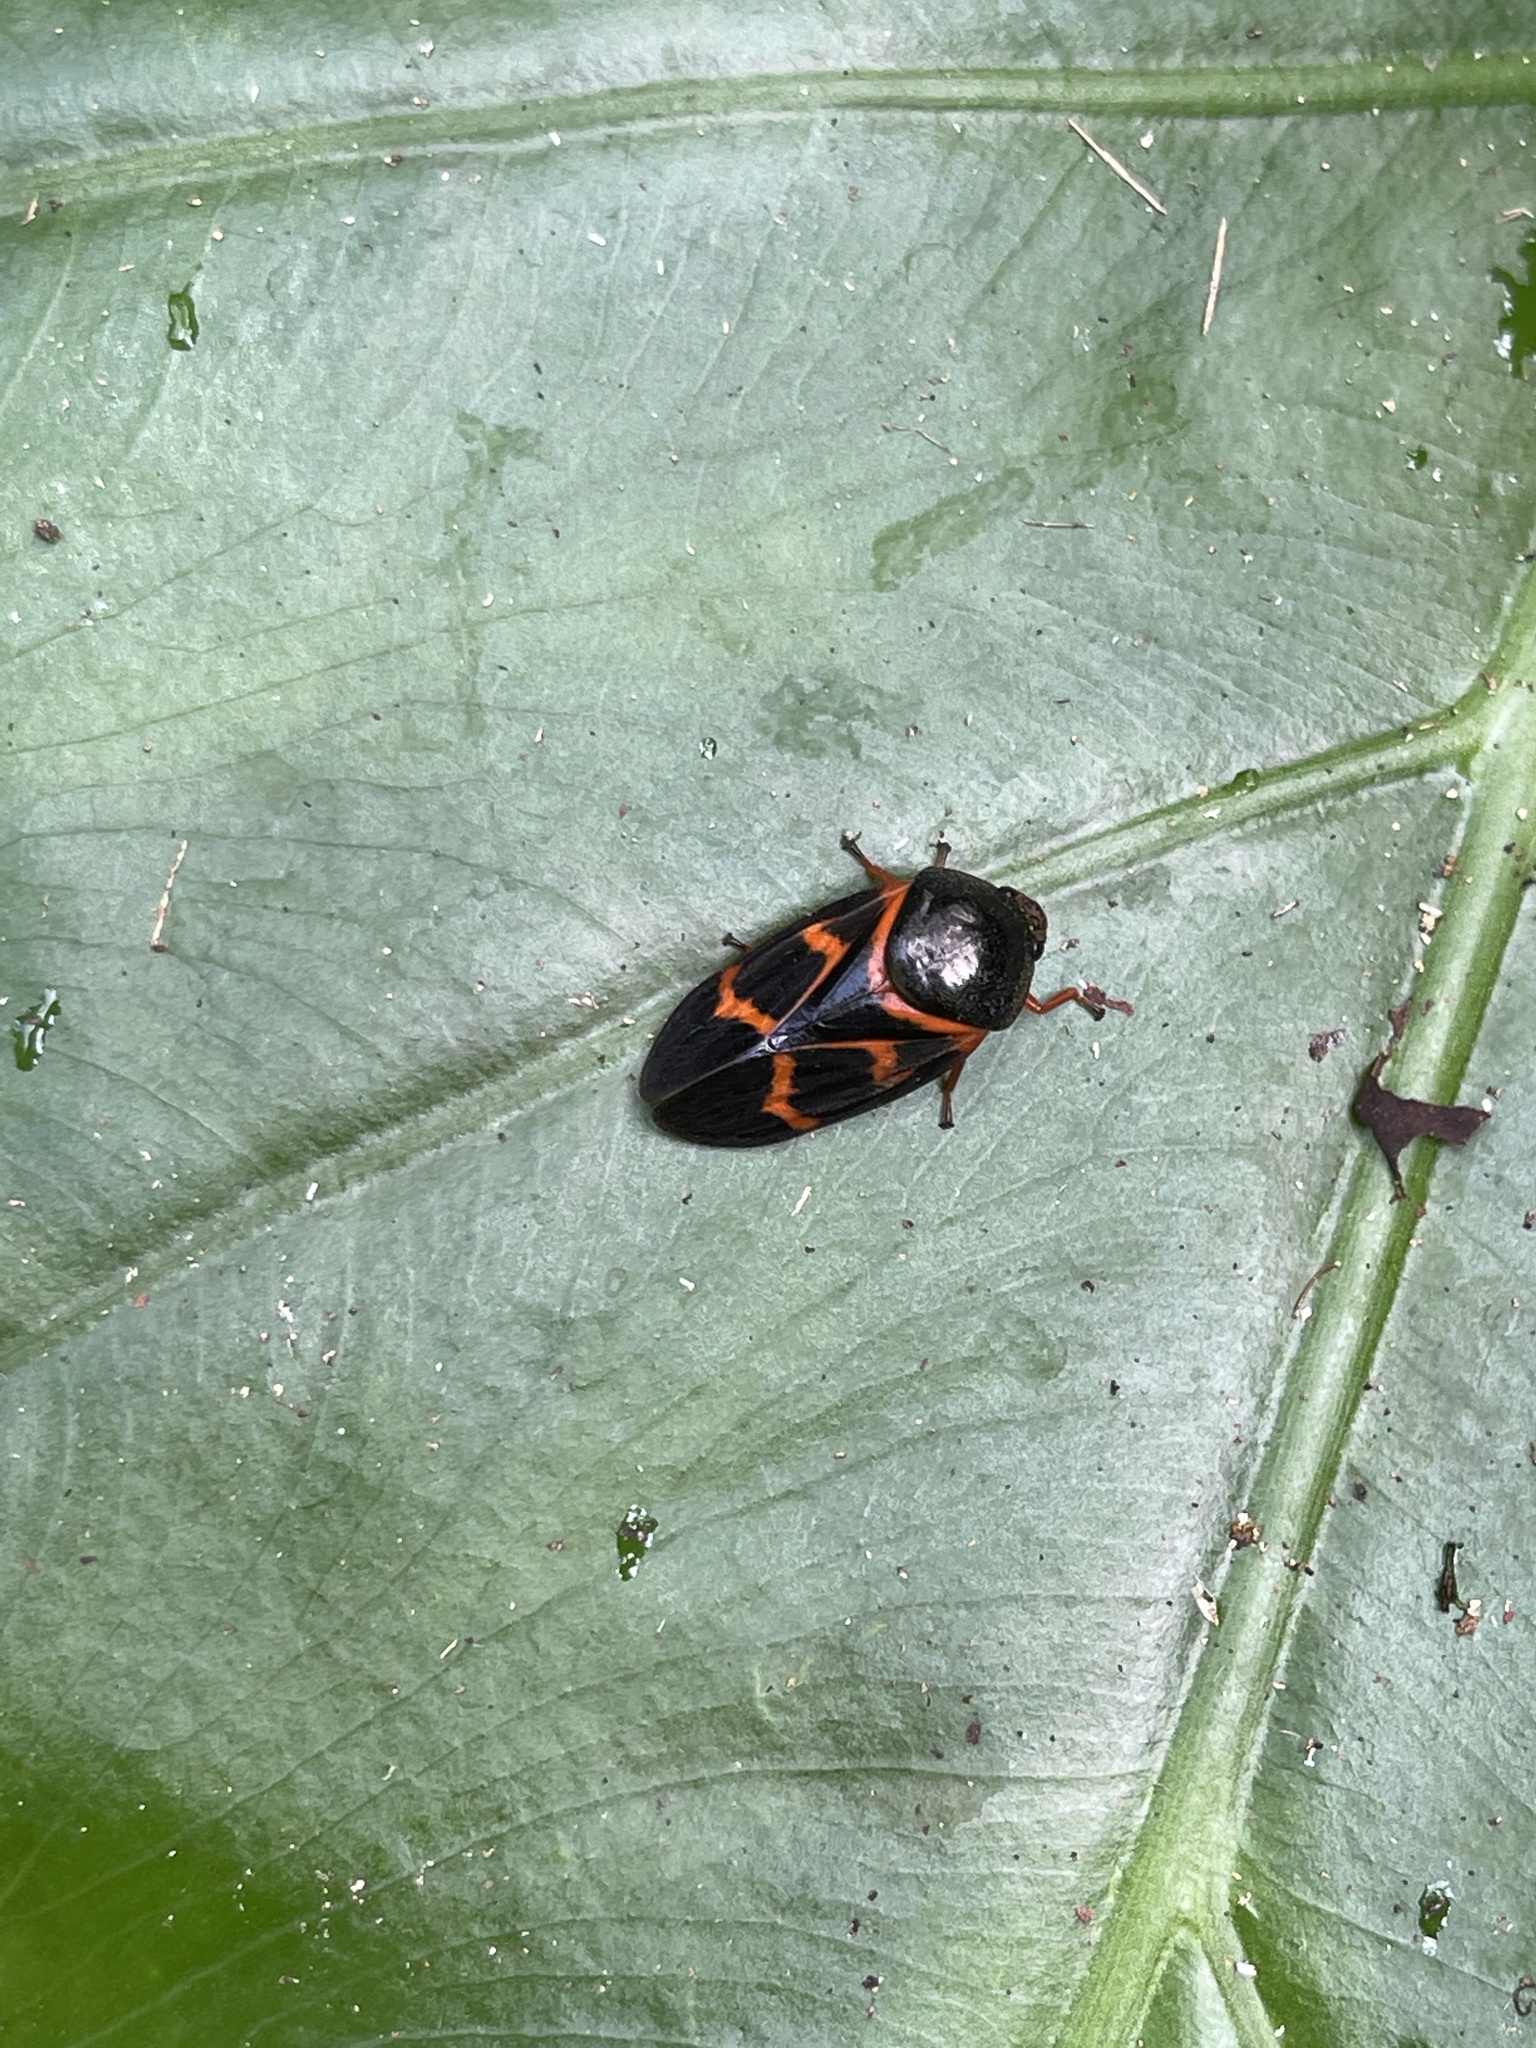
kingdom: Animalia
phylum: Arthropoda
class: Insecta
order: Hemiptera
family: Cercopidae
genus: Okiscarta
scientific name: Okiscarta uchidae
